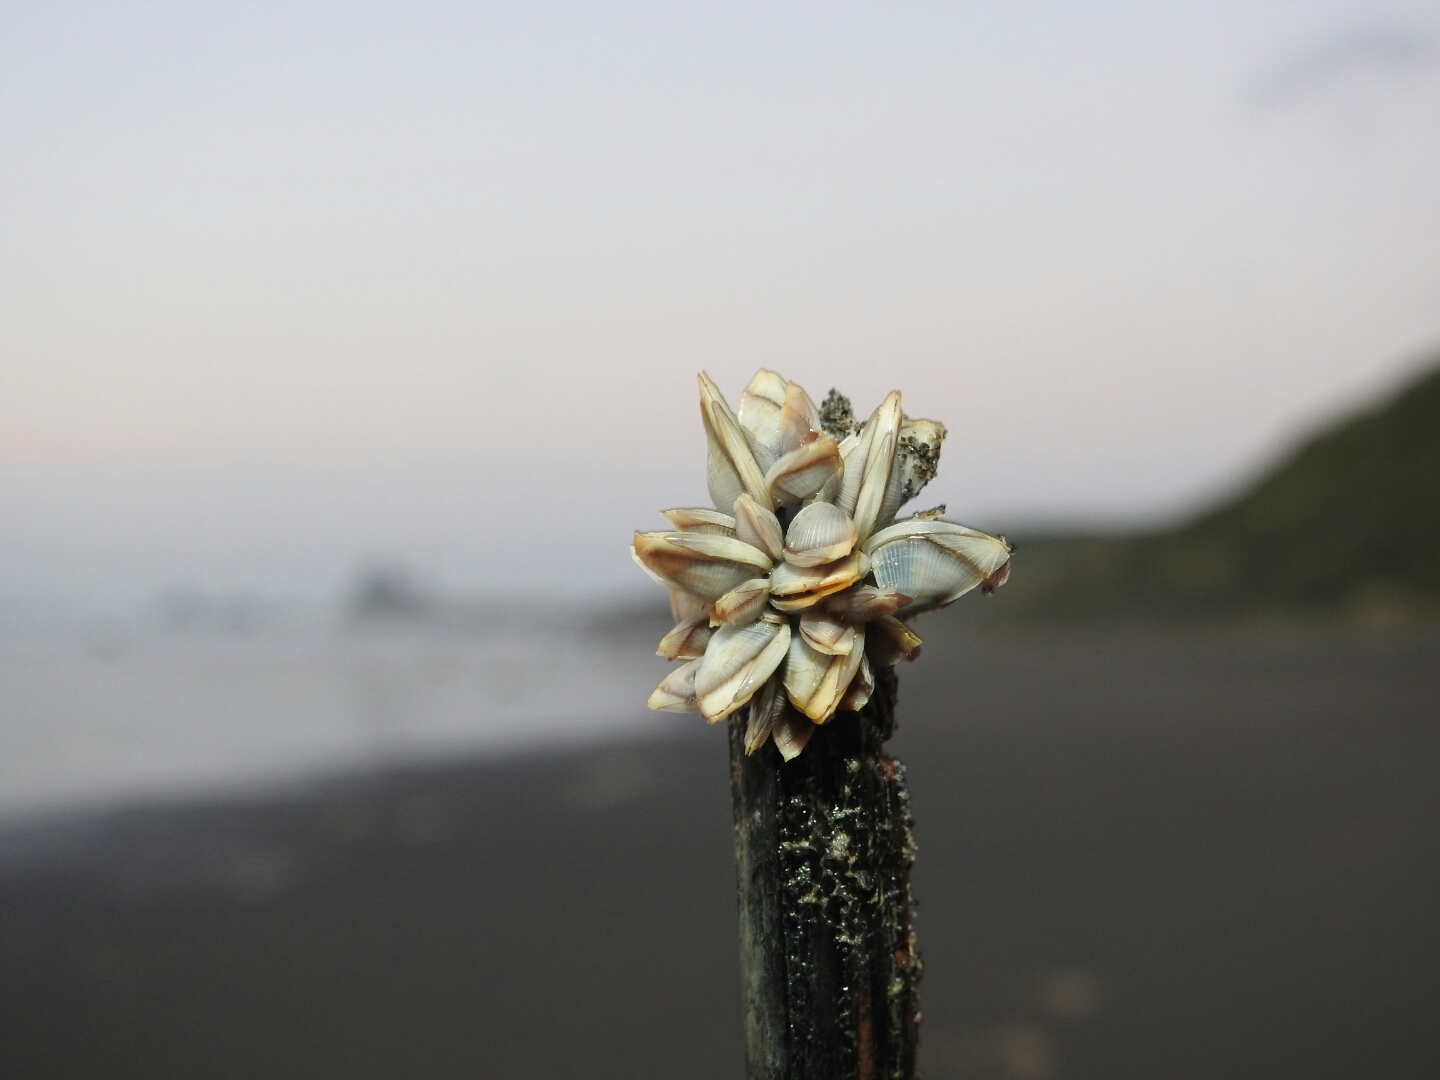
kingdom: Animalia
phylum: Arthropoda
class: Maxillopoda
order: Pedunculata
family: Lepadidae
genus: Lepas
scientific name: Lepas pectinata
